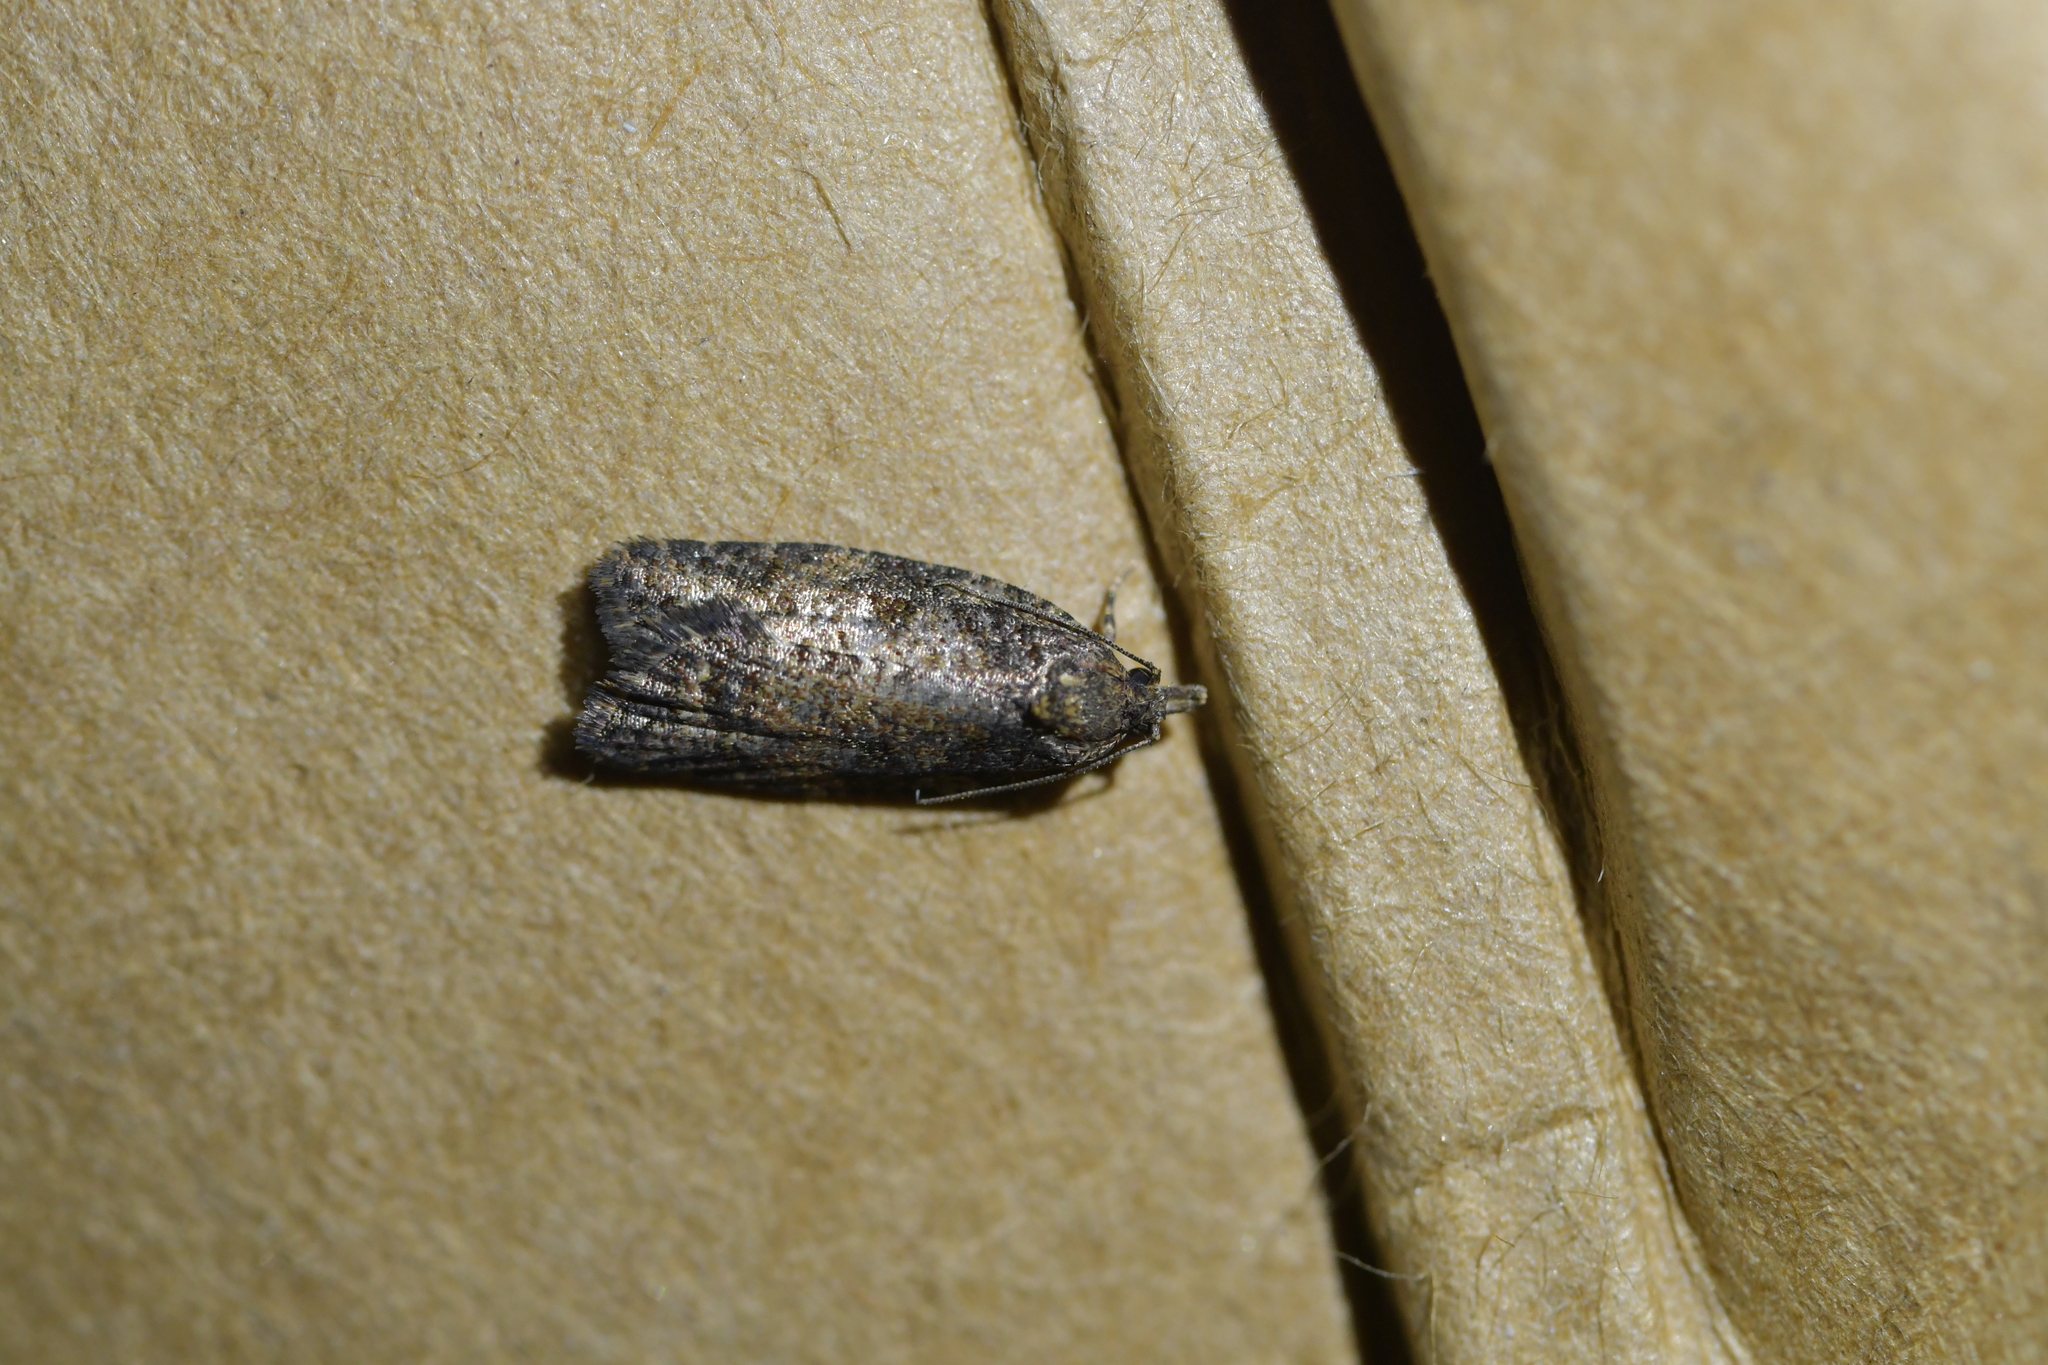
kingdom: Animalia
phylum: Arthropoda
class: Insecta
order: Lepidoptera
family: Tortricidae
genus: Capua
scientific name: Capua intractana
